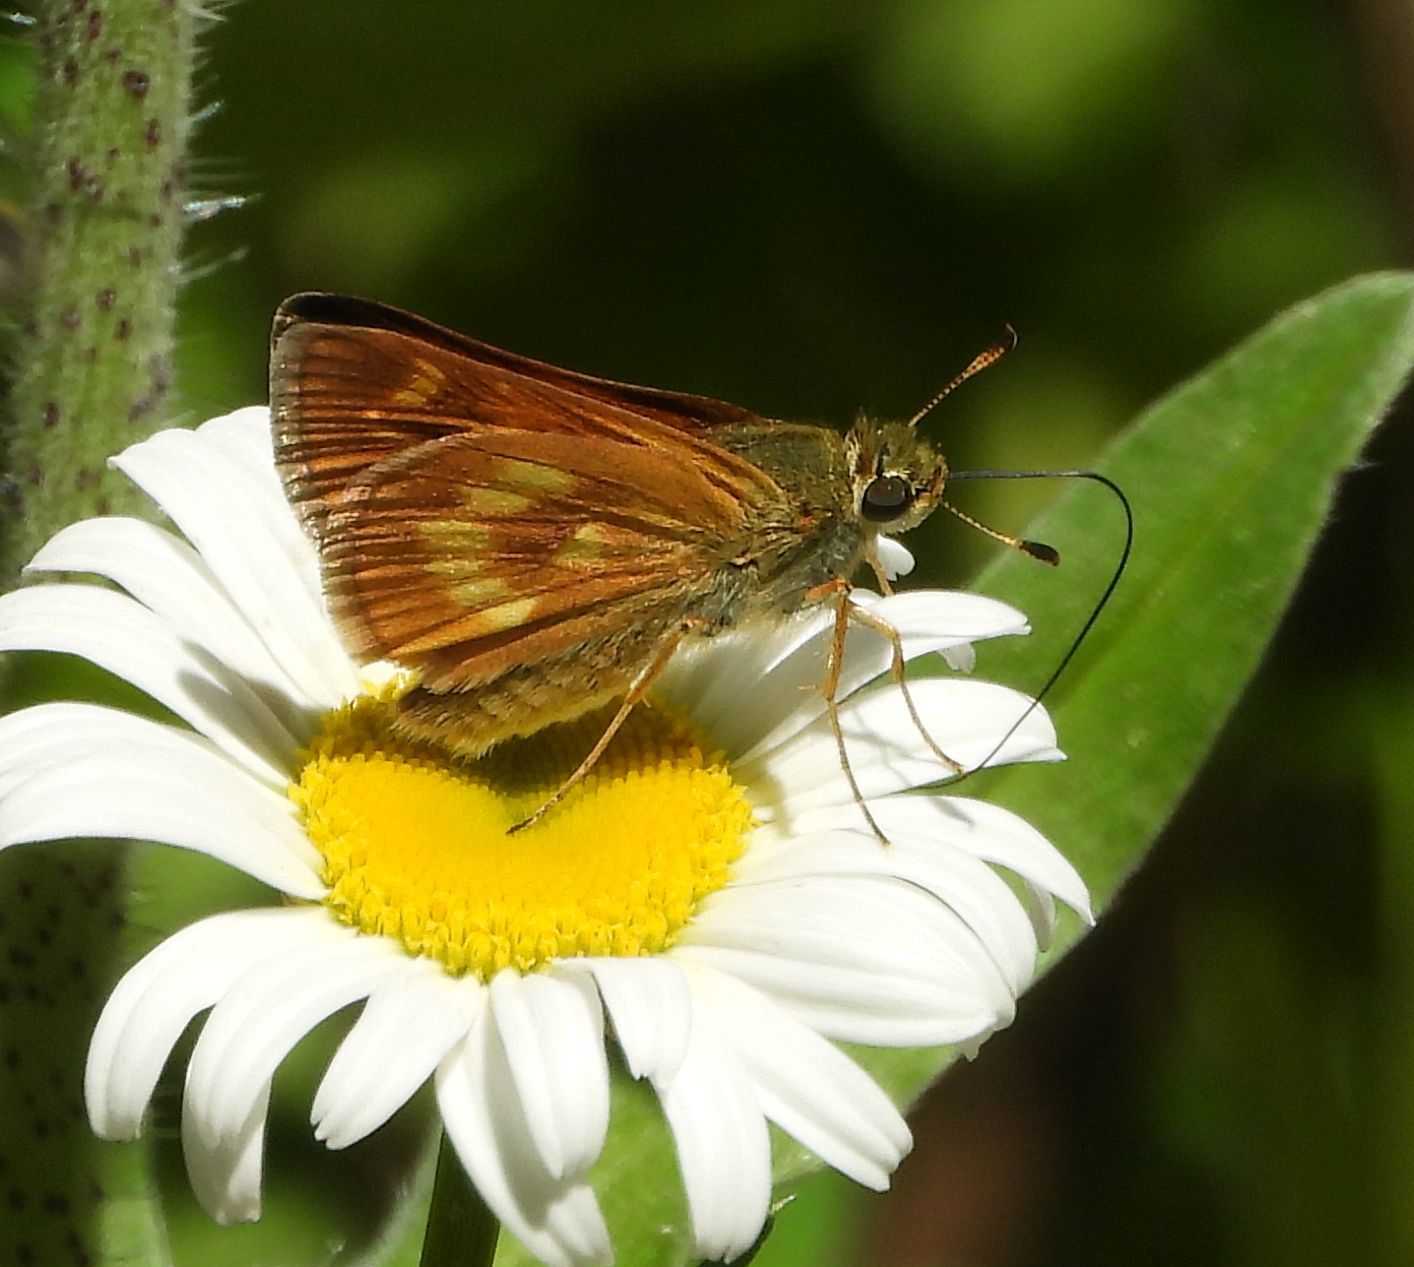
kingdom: Animalia
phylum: Arthropoda
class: Insecta
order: Lepidoptera
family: Hesperiidae
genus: Polites
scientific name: Polites mystic
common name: Long dash
